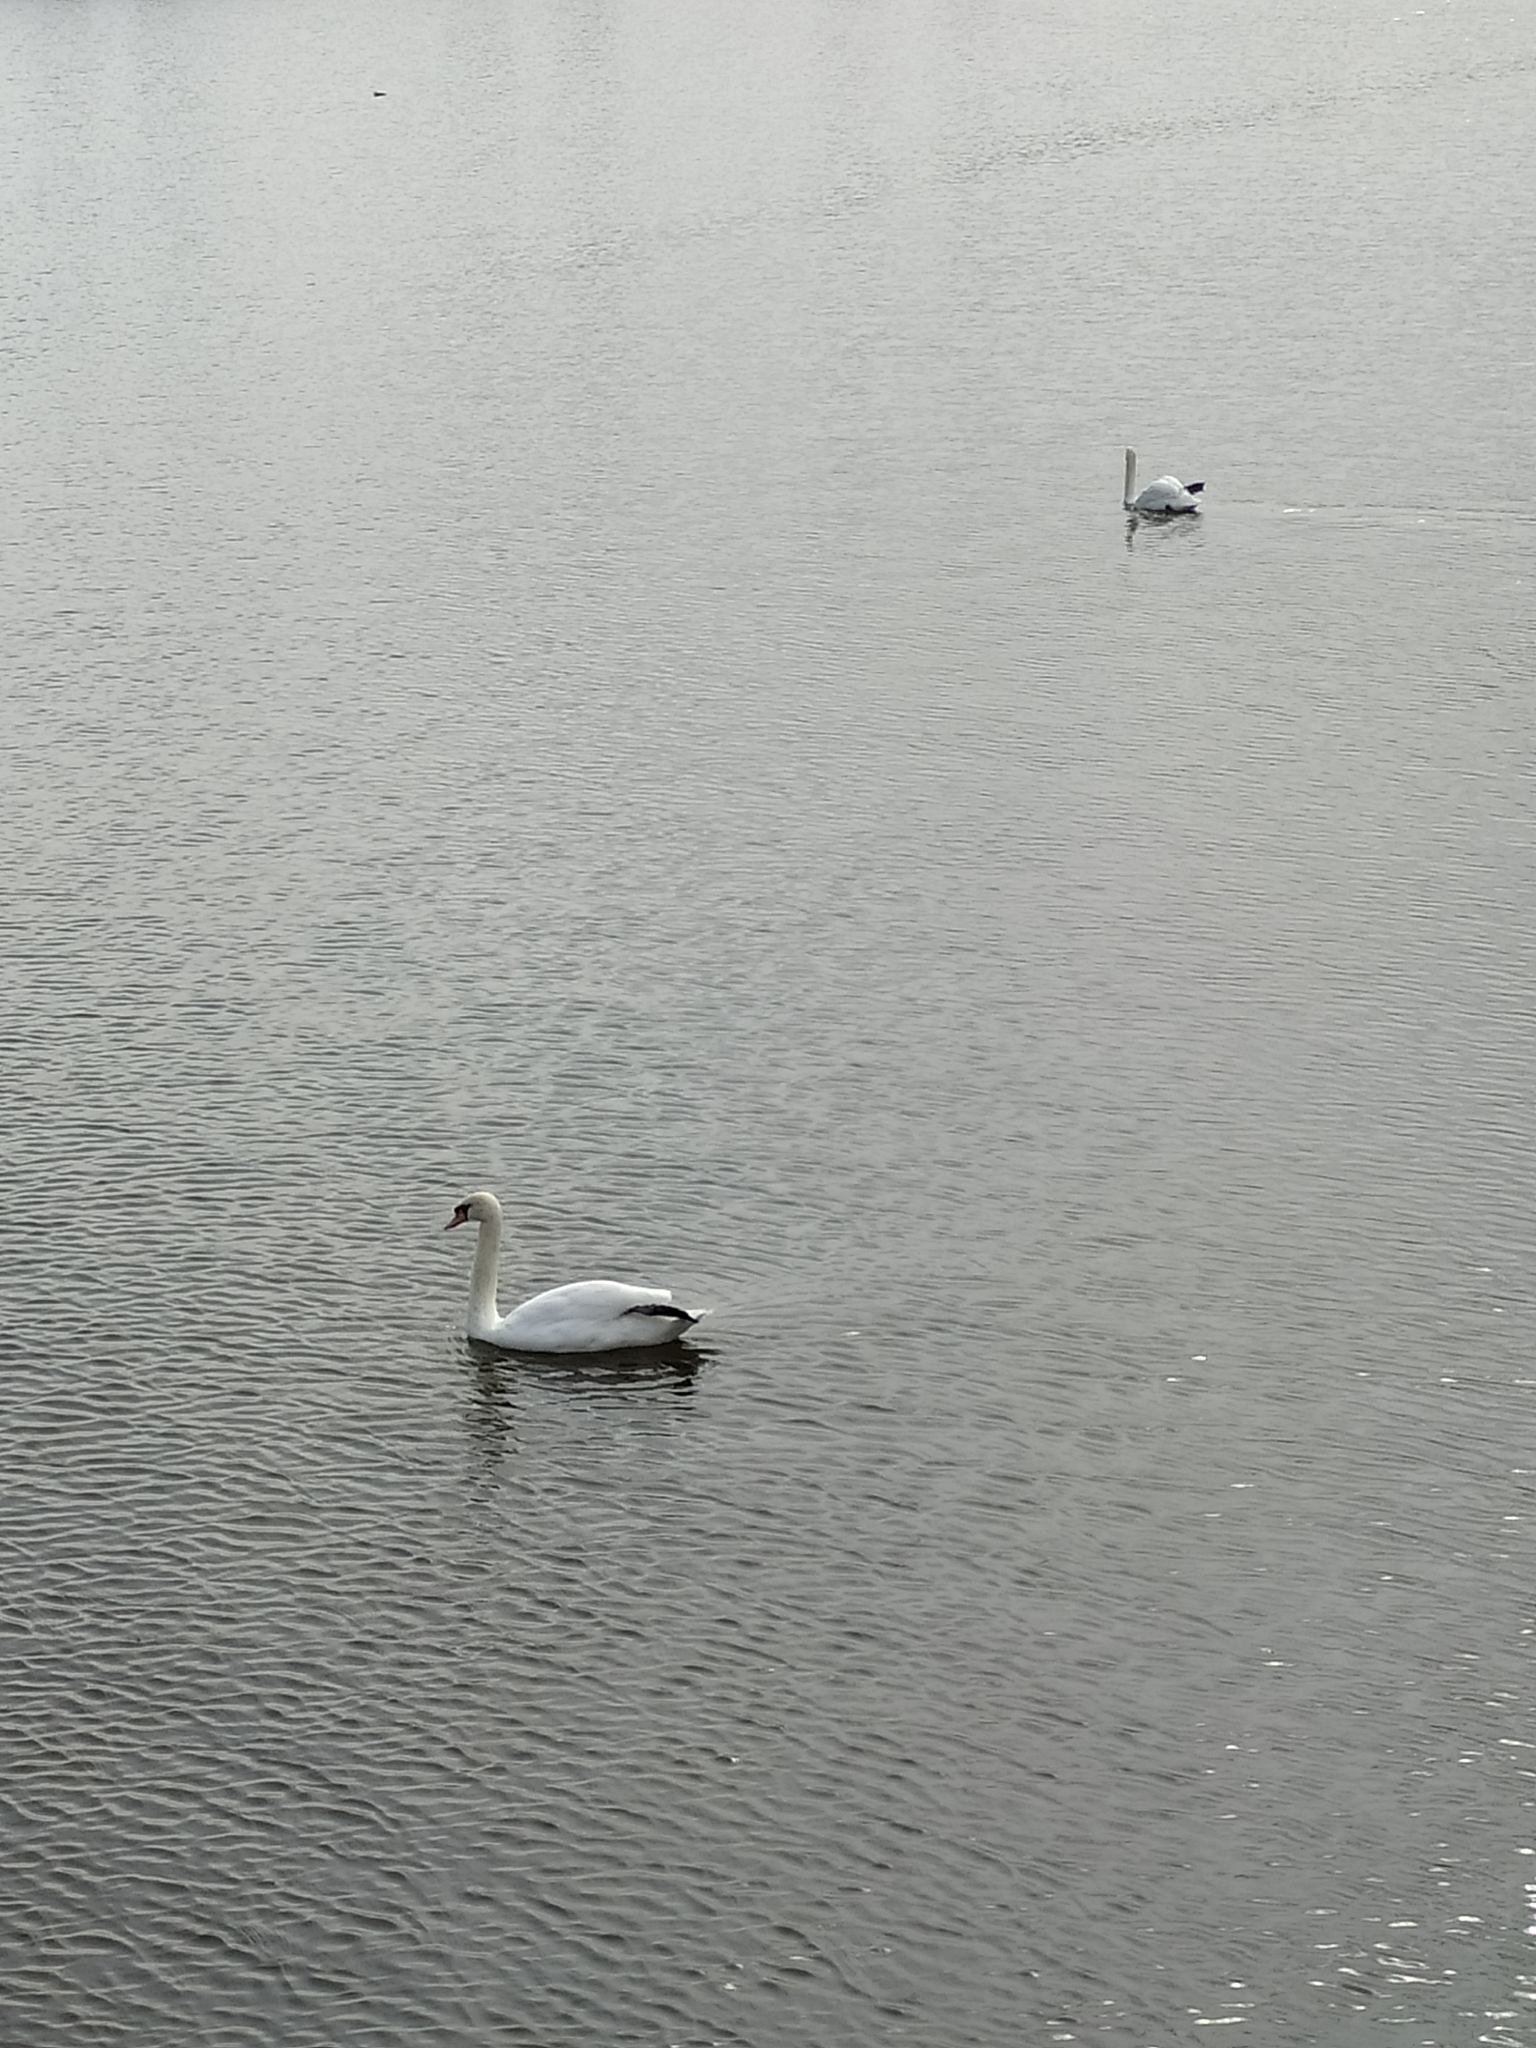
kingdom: Animalia
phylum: Chordata
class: Aves
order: Anseriformes
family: Anatidae
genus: Cygnus
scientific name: Cygnus olor
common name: Mute swan
